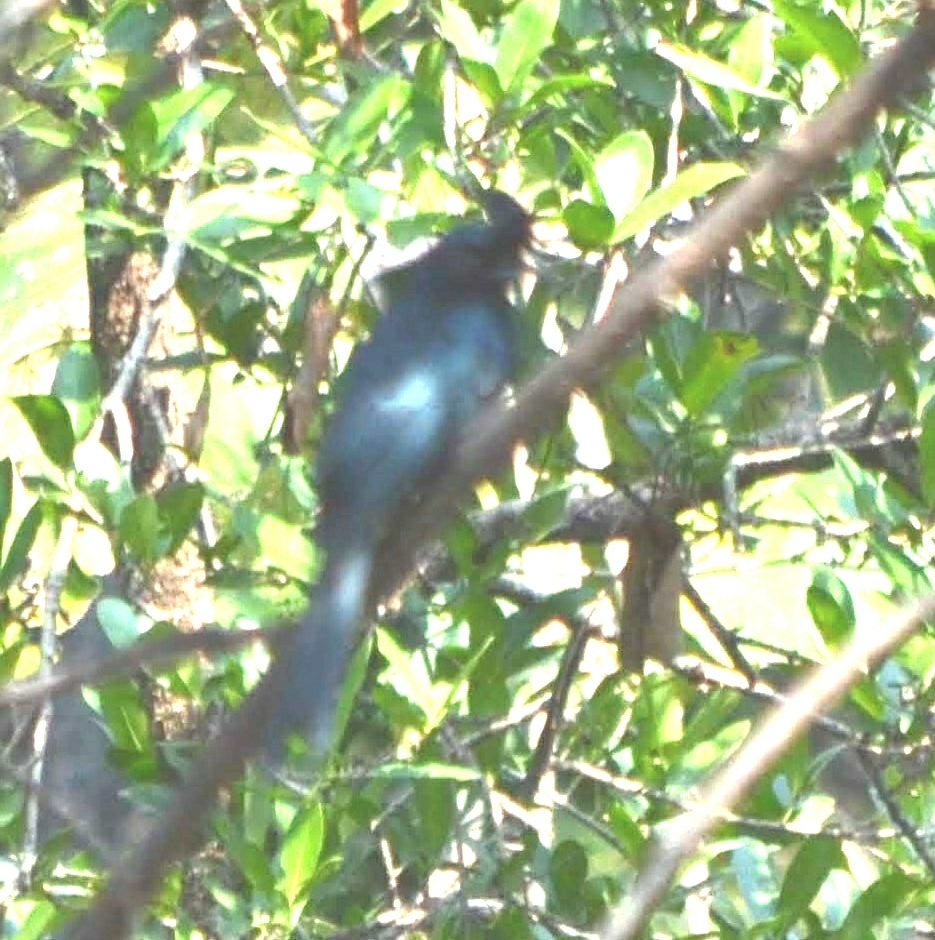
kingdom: Animalia
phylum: Chordata
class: Aves
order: Passeriformes
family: Dicruridae
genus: Dicrurus
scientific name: Dicrurus paradiseus
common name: Greater racket-tailed drongo
